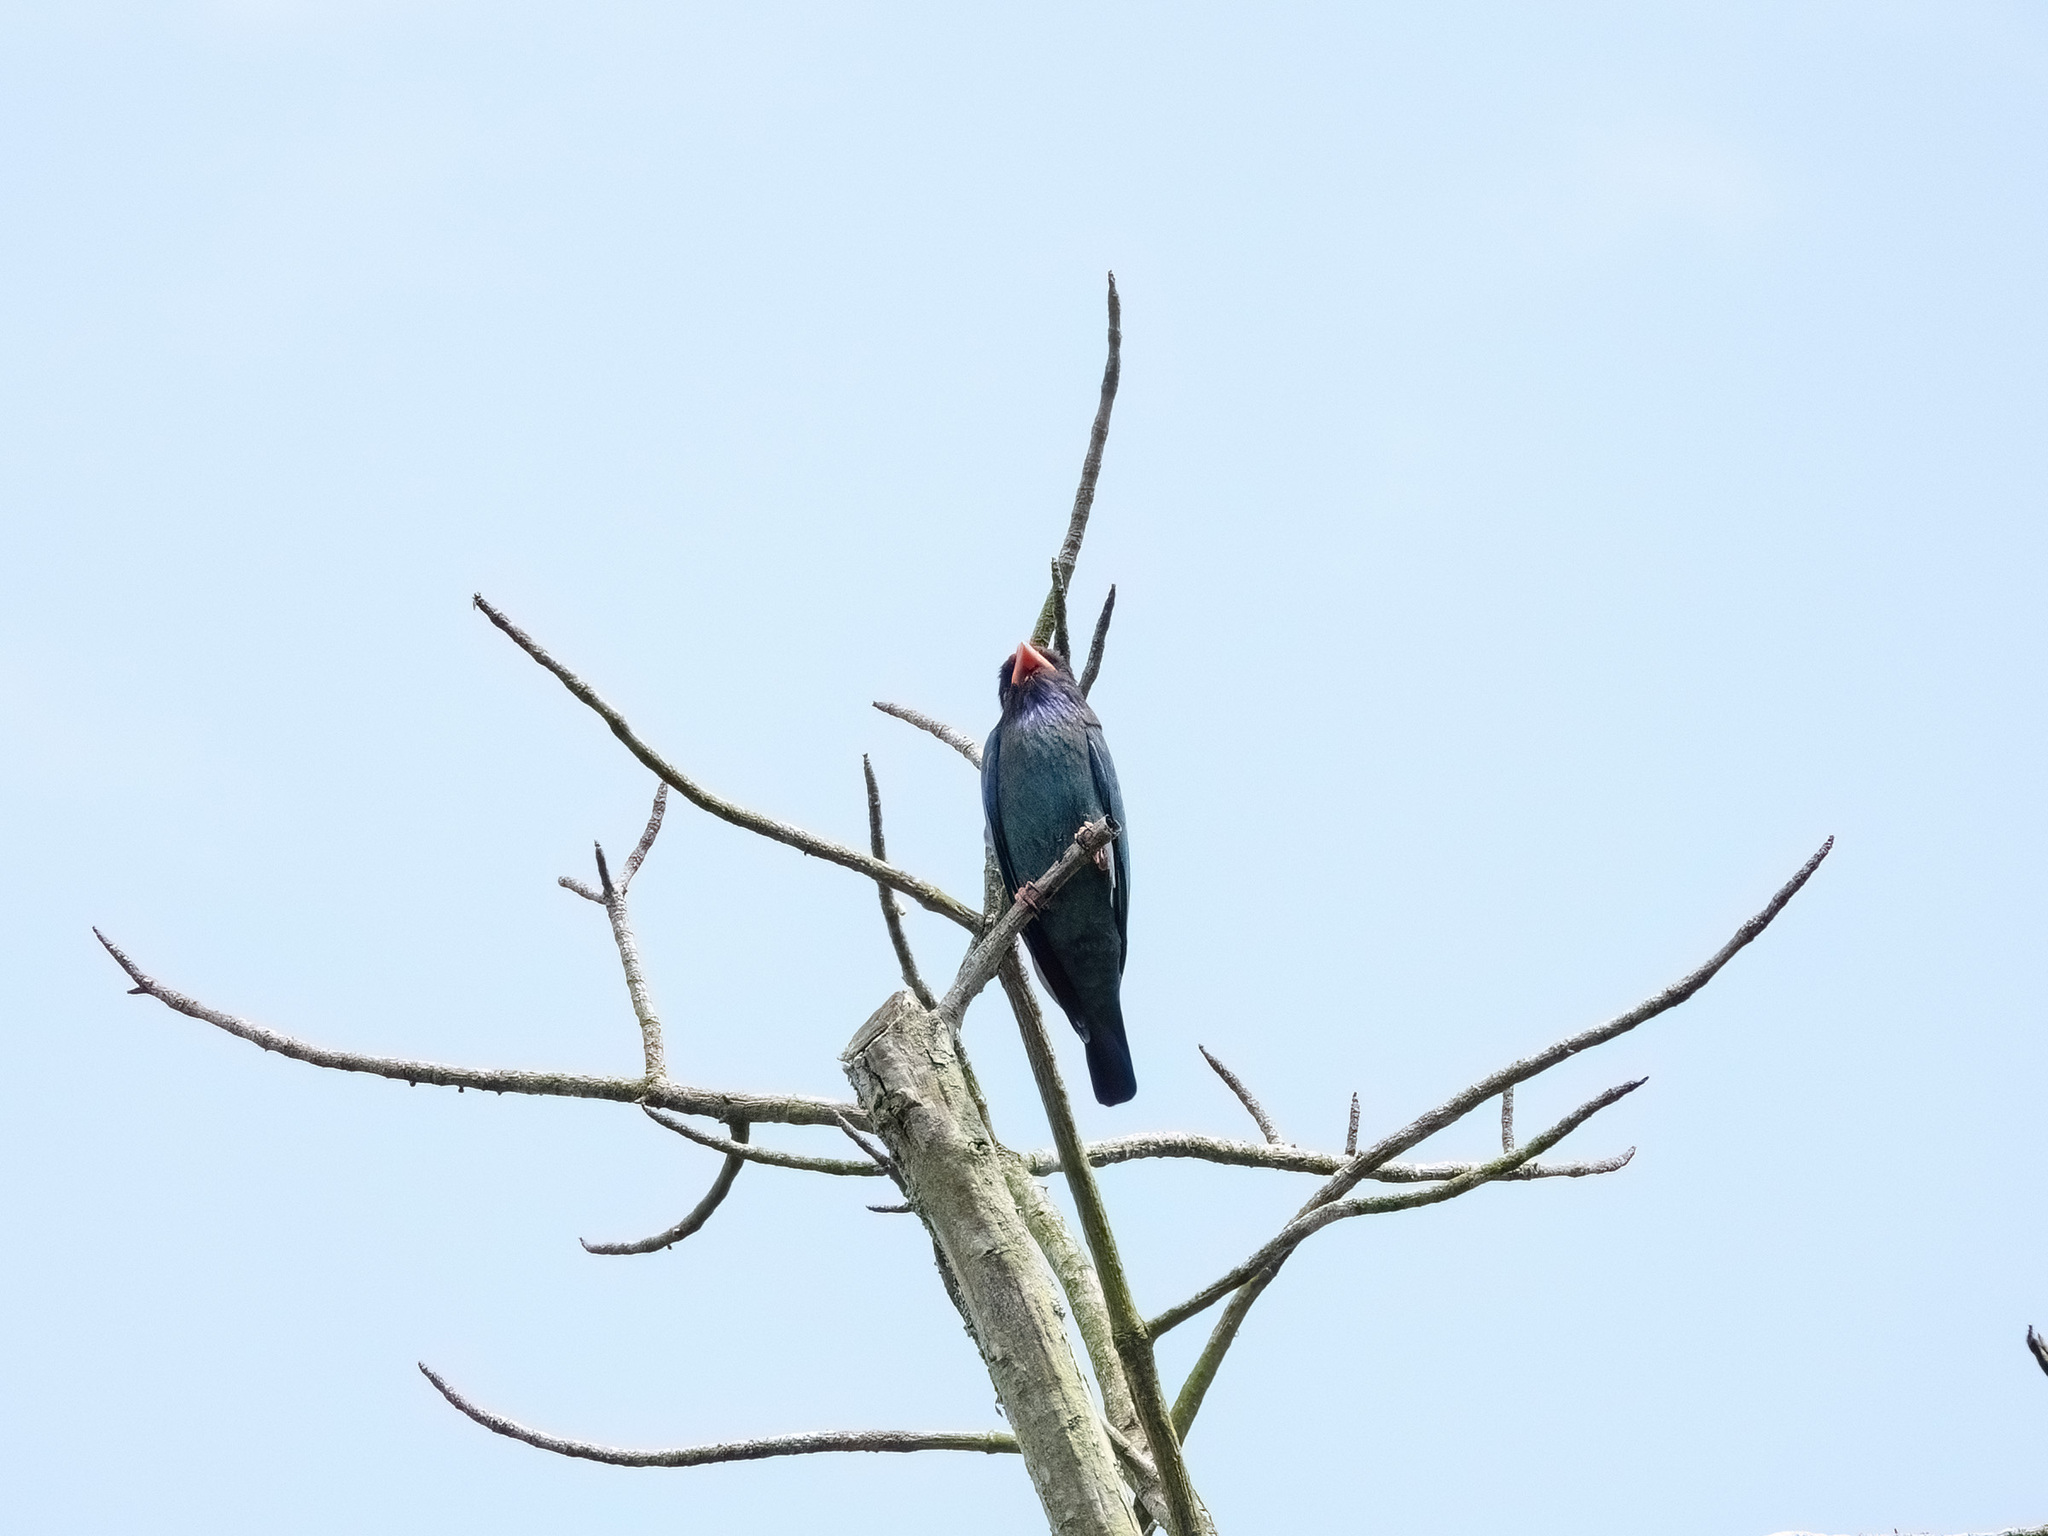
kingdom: Animalia
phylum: Chordata
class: Aves
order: Coraciiformes
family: Coraciidae
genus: Eurystomus
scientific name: Eurystomus orientalis
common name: Oriental dollarbird
